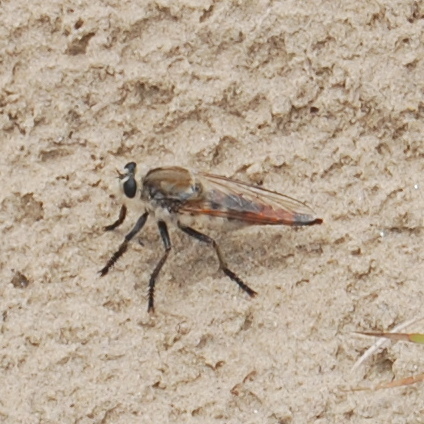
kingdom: Animalia
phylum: Arthropoda
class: Insecta
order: Diptera
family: Asilidae
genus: Eccritosia
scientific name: Eccritosia rubriventris
